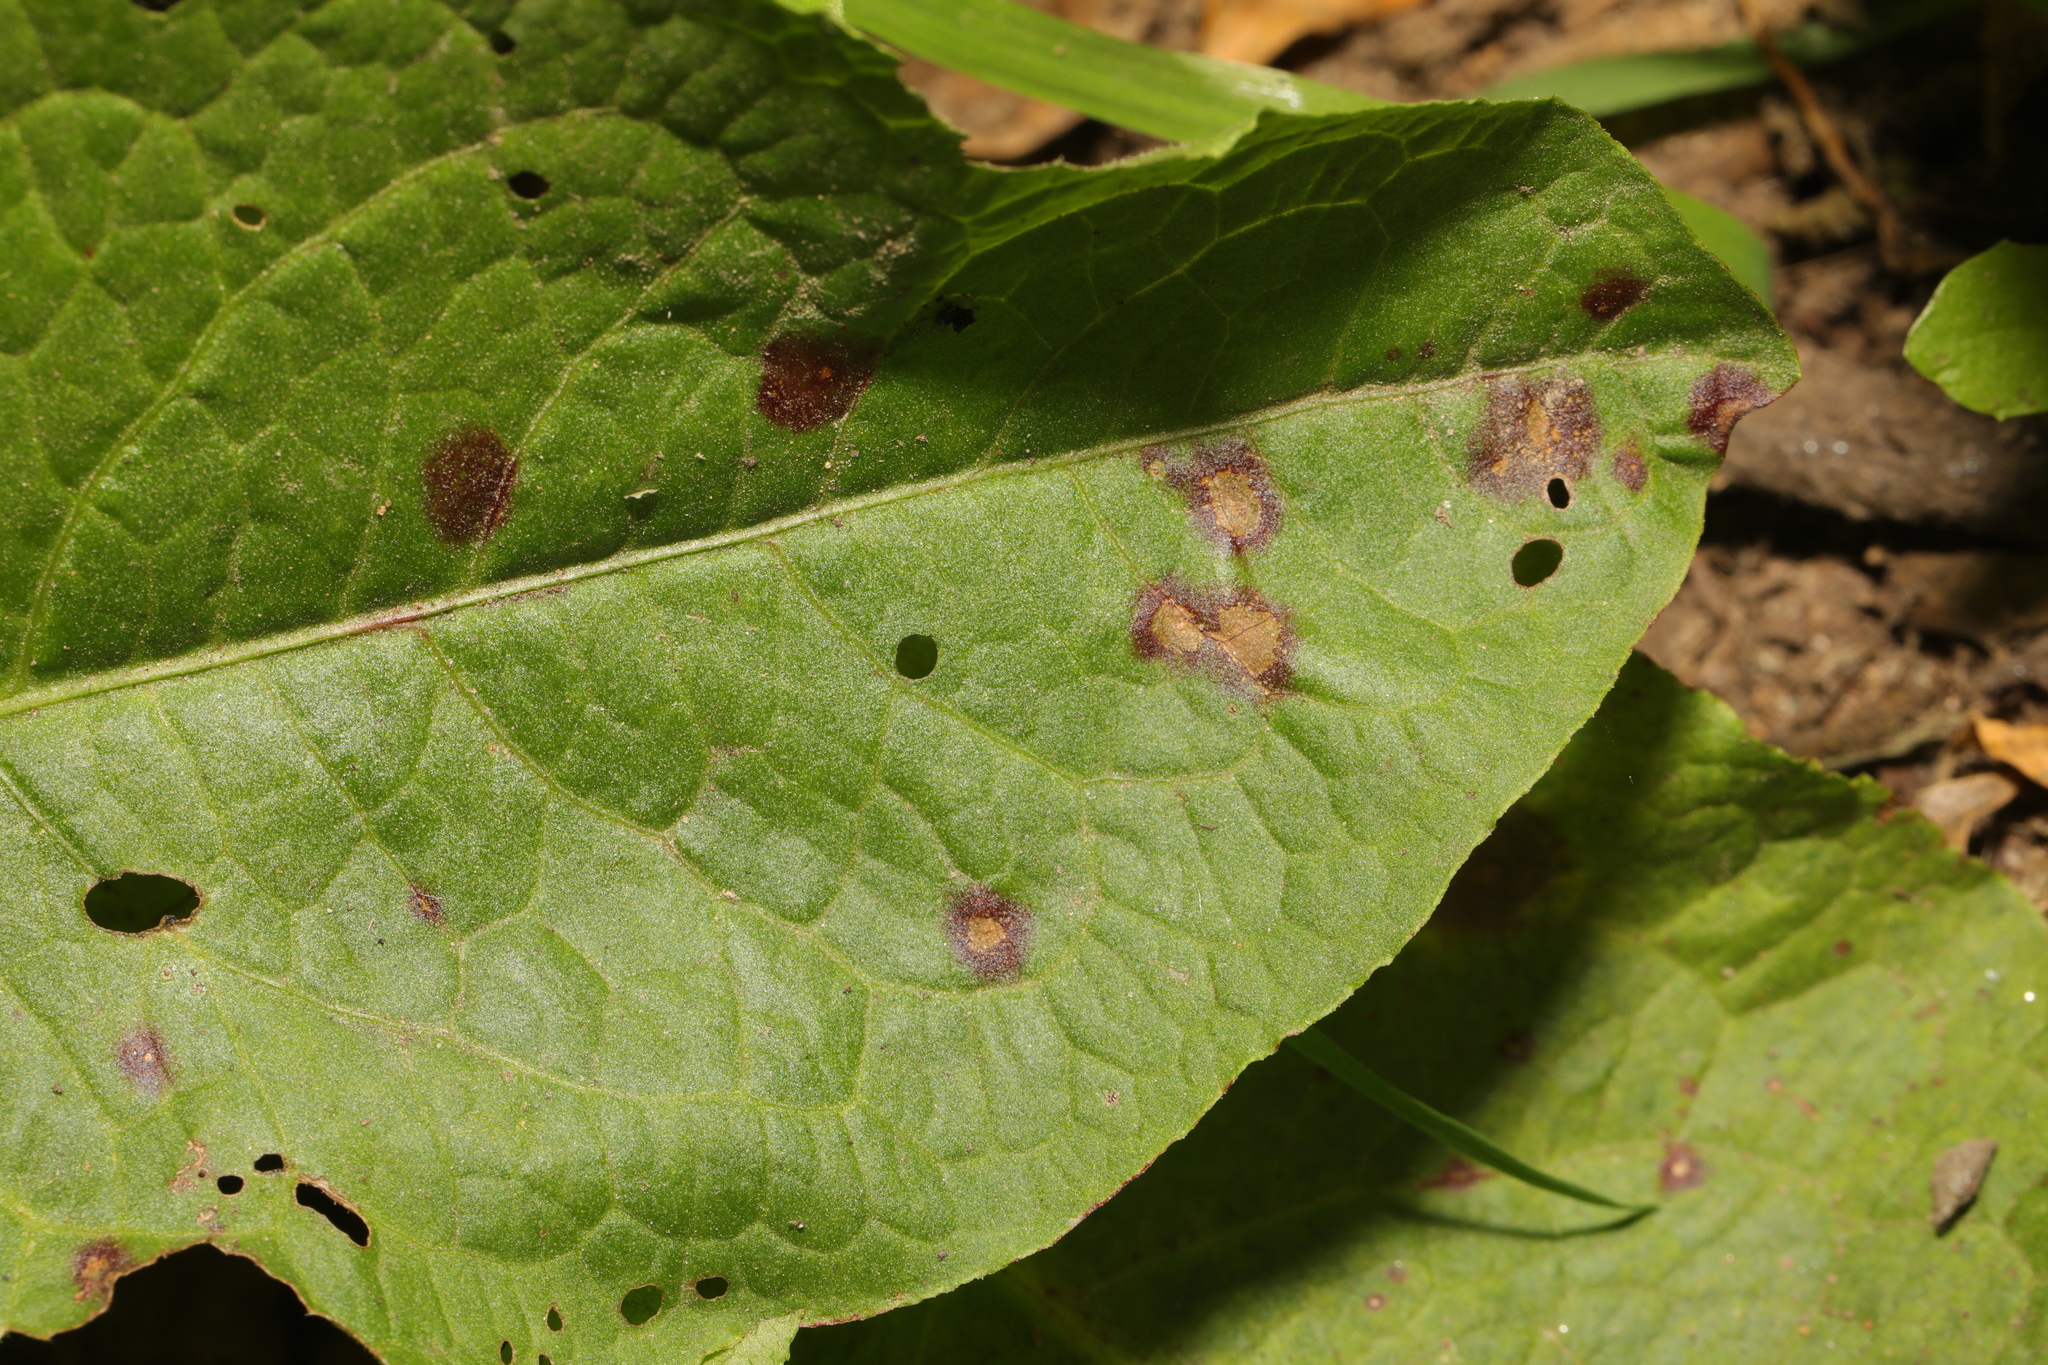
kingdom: Fungi
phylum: Ascomycota
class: Dothideomycetes
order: Mycosphaerellales
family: Mycosphaerellaceae
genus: Ramularia
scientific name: Ramularia rubella
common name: Red dock spot
